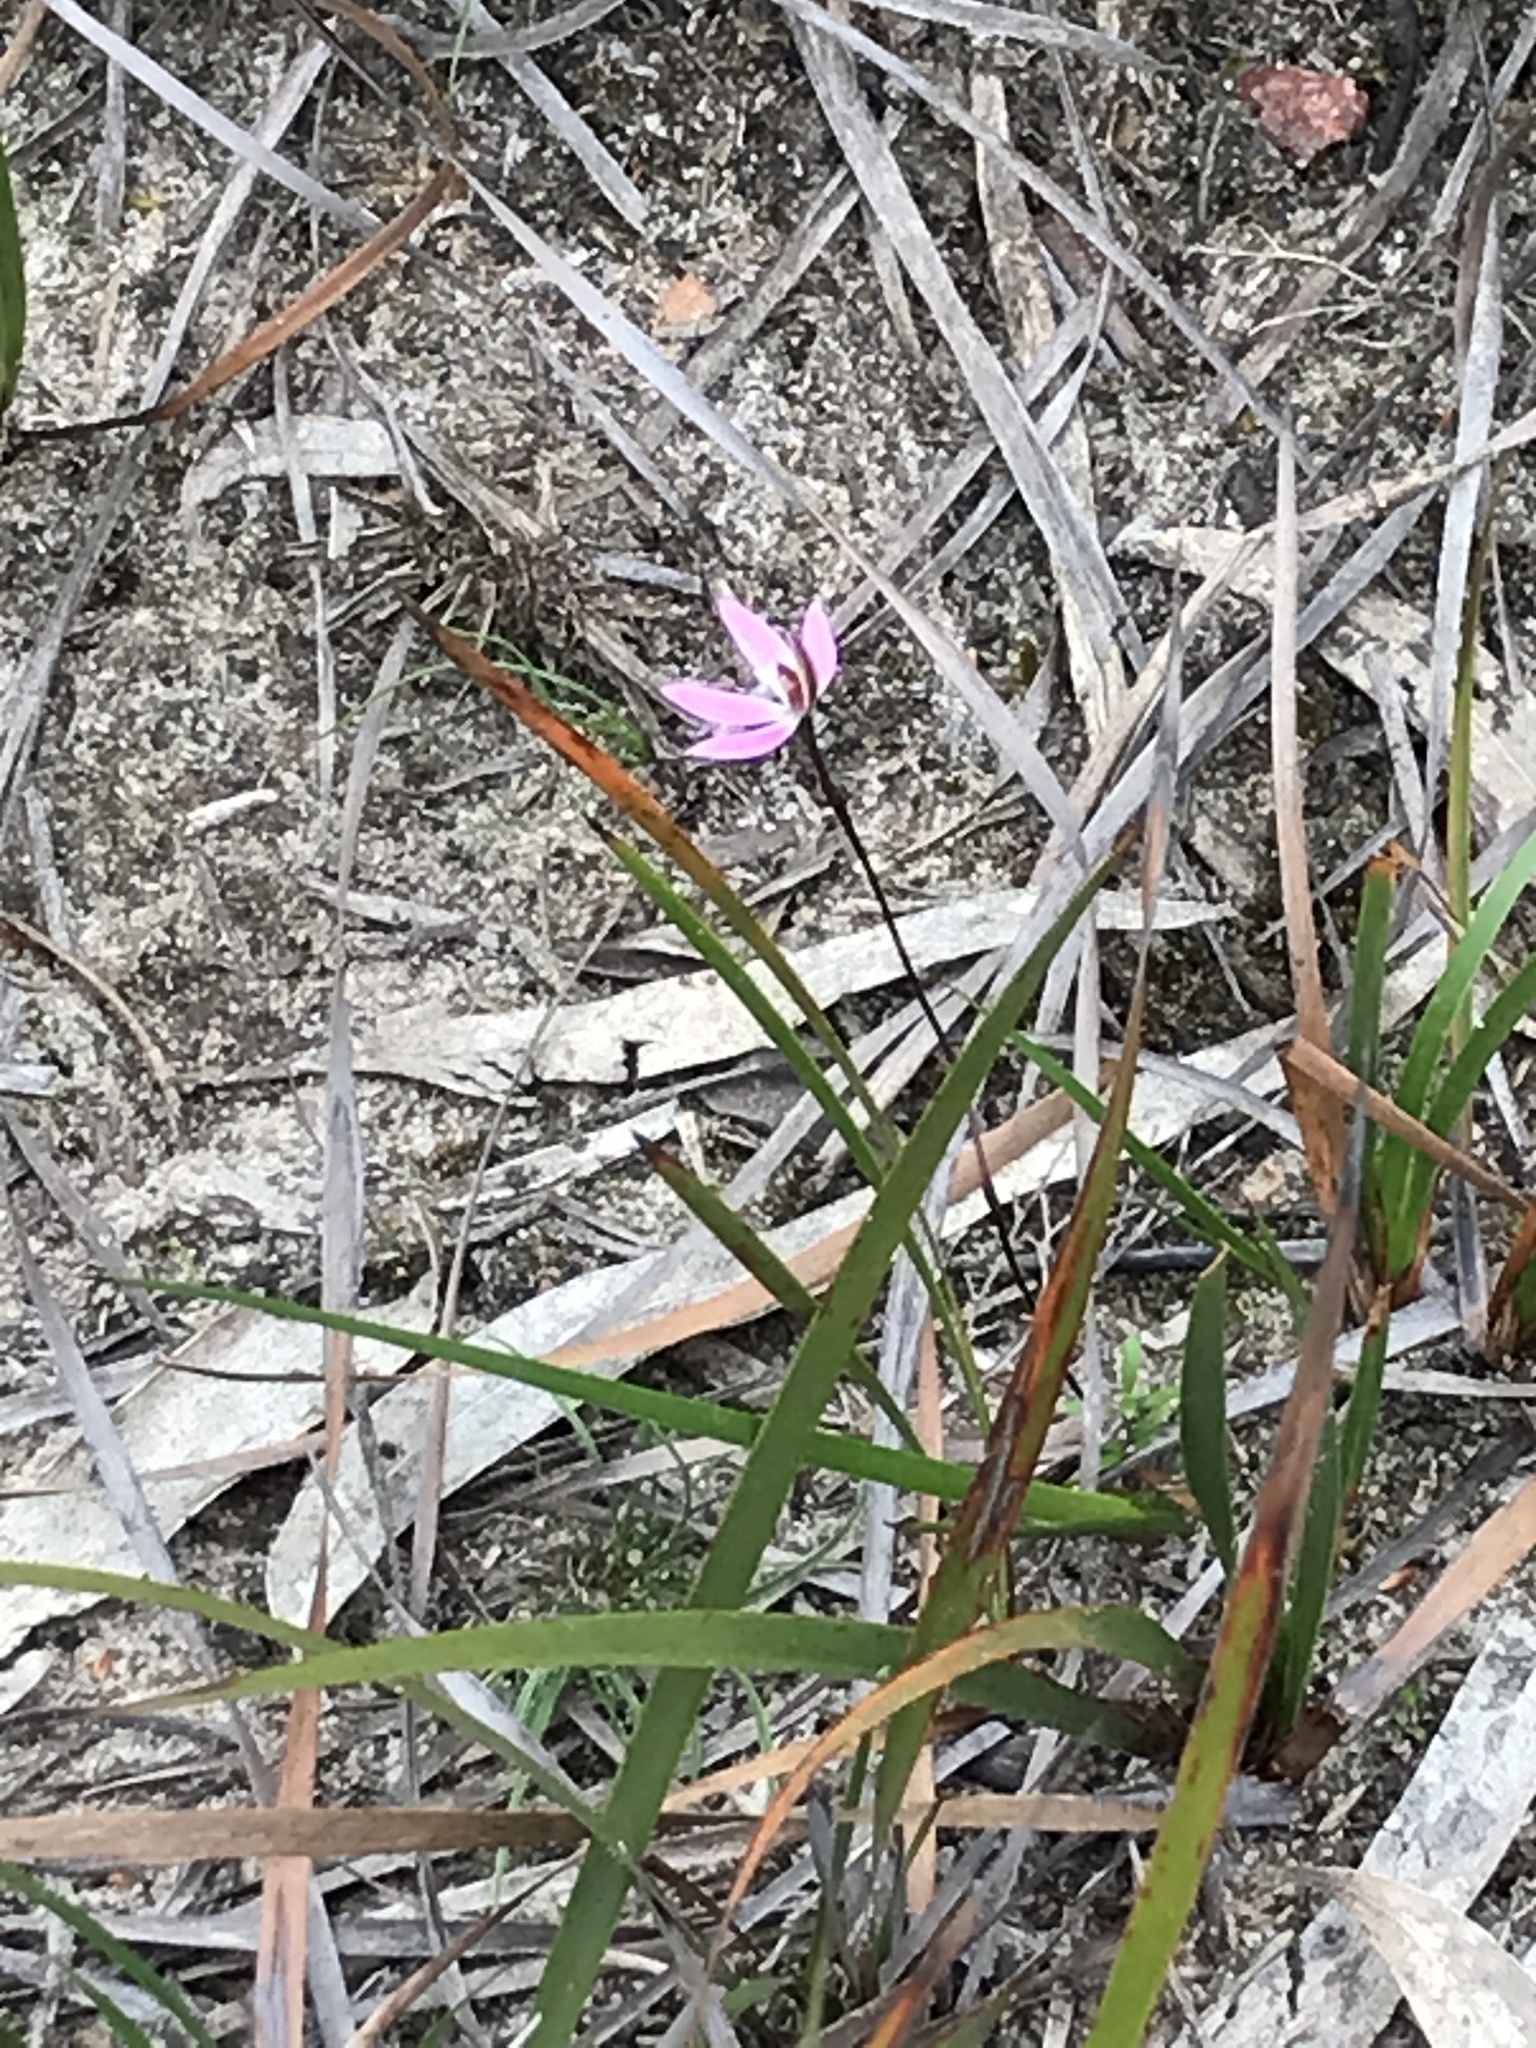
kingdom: Plantae
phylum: Tracheophyta
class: Liliopsida
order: Asparagales
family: Orchidaceae
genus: Caladenia
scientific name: Caladenia fuscata
